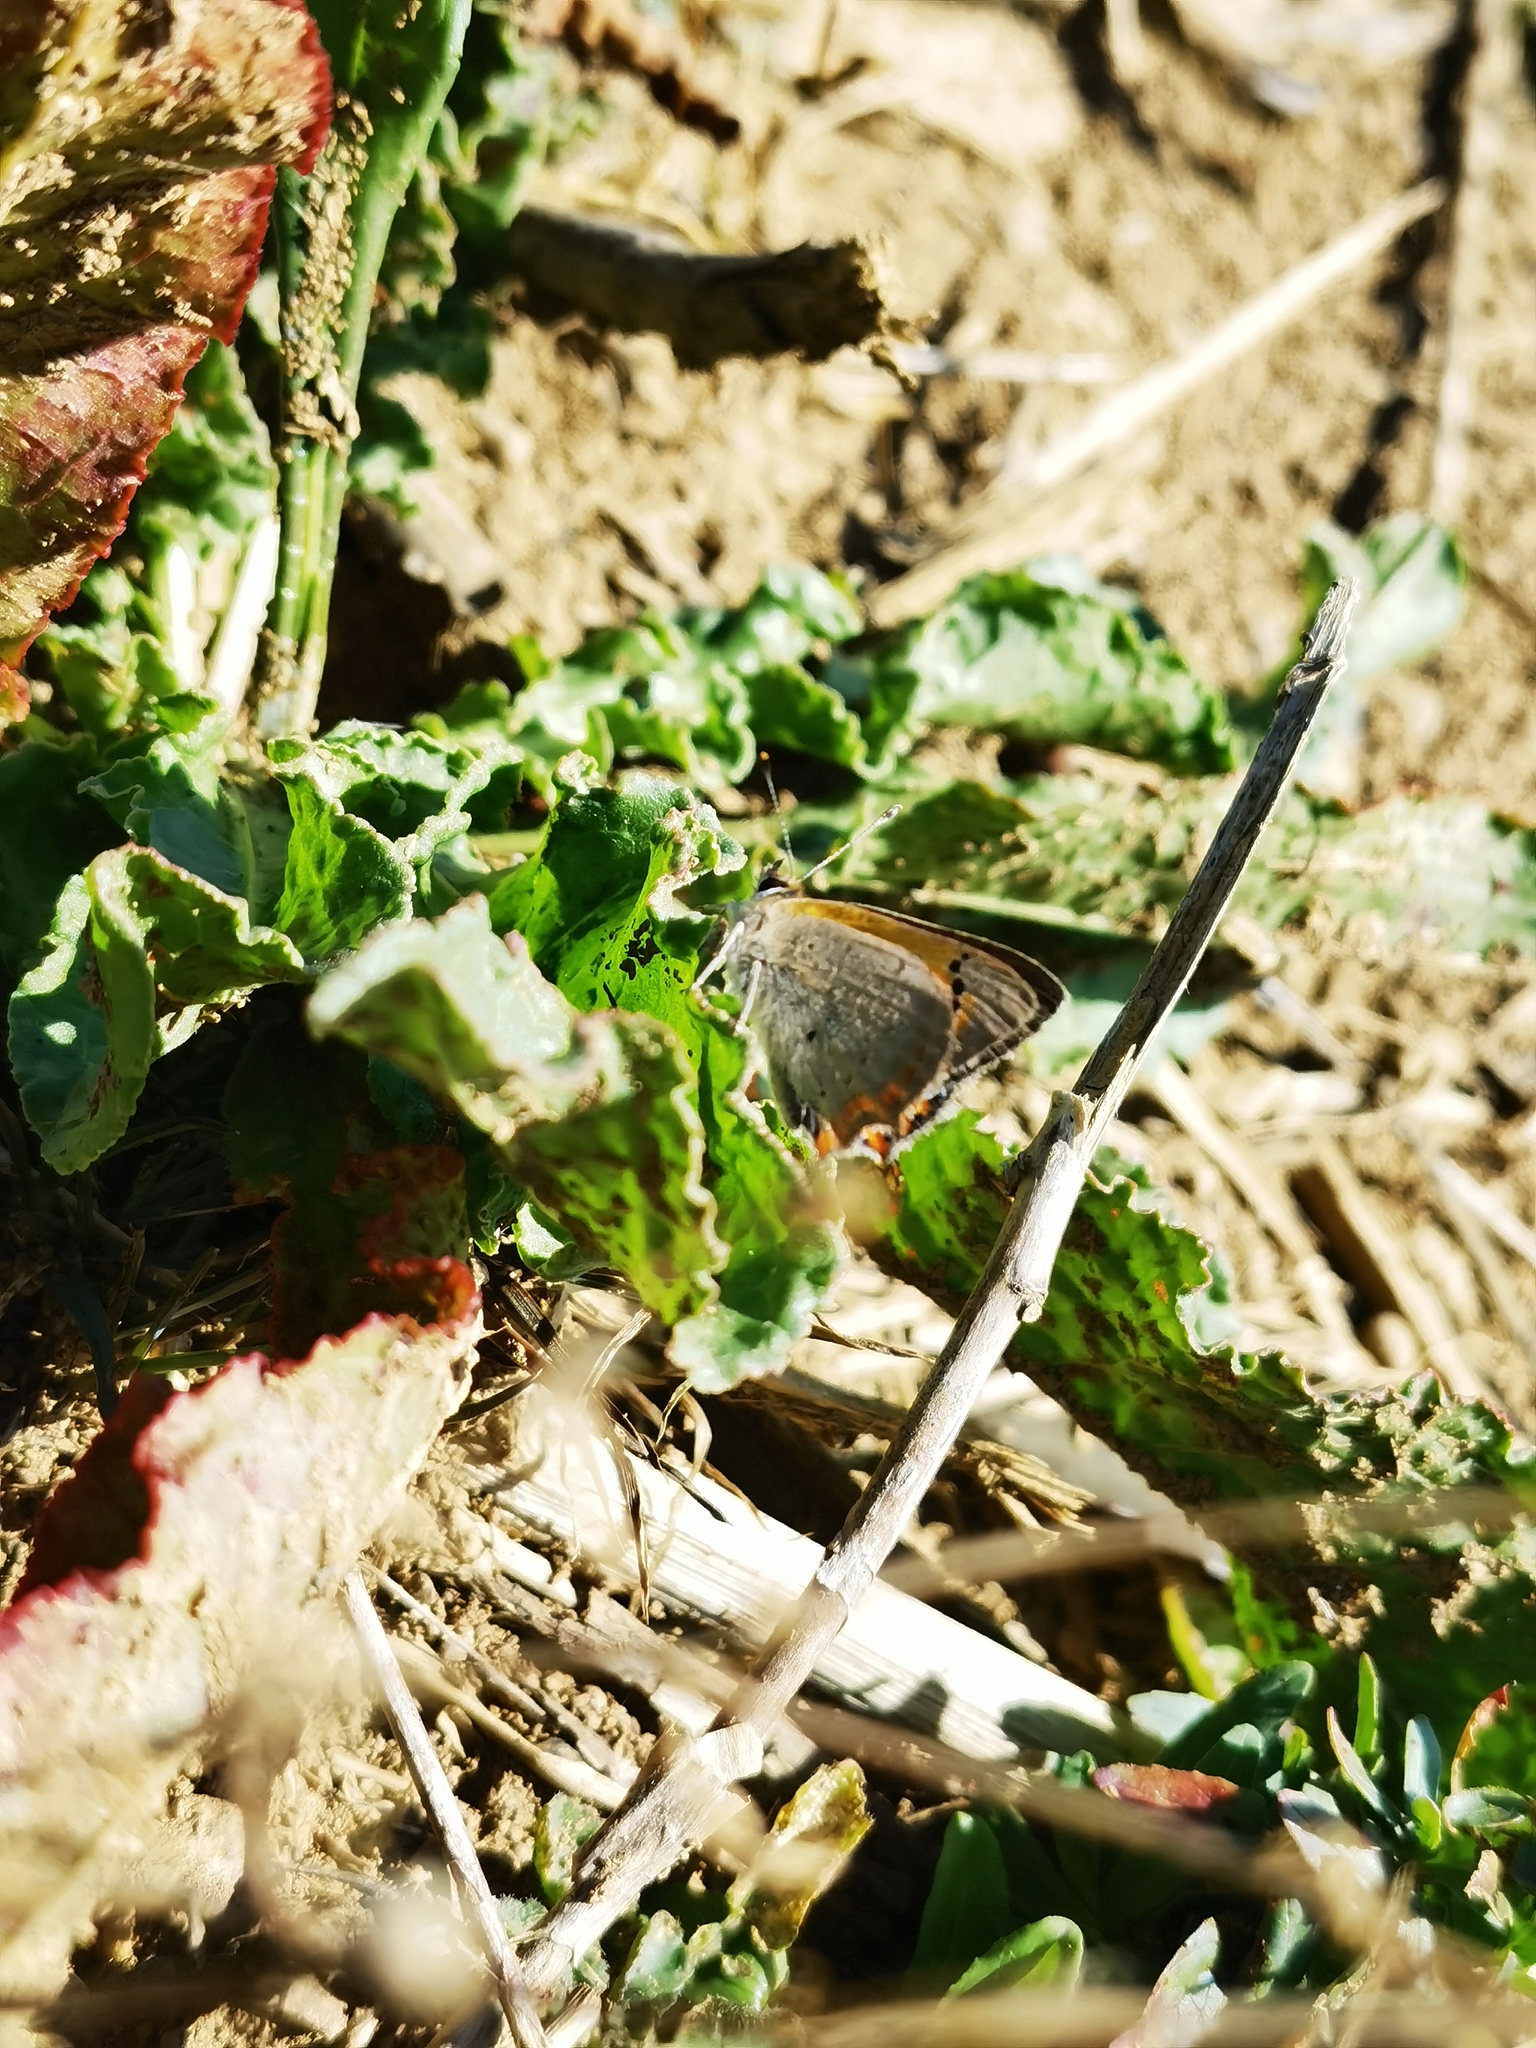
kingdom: Animalia
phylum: Arthropoda
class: Insecta
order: Lepidoptera
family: Lycaenidae
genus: Lycaena
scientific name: Lycaena phlaeas
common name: Small copper
